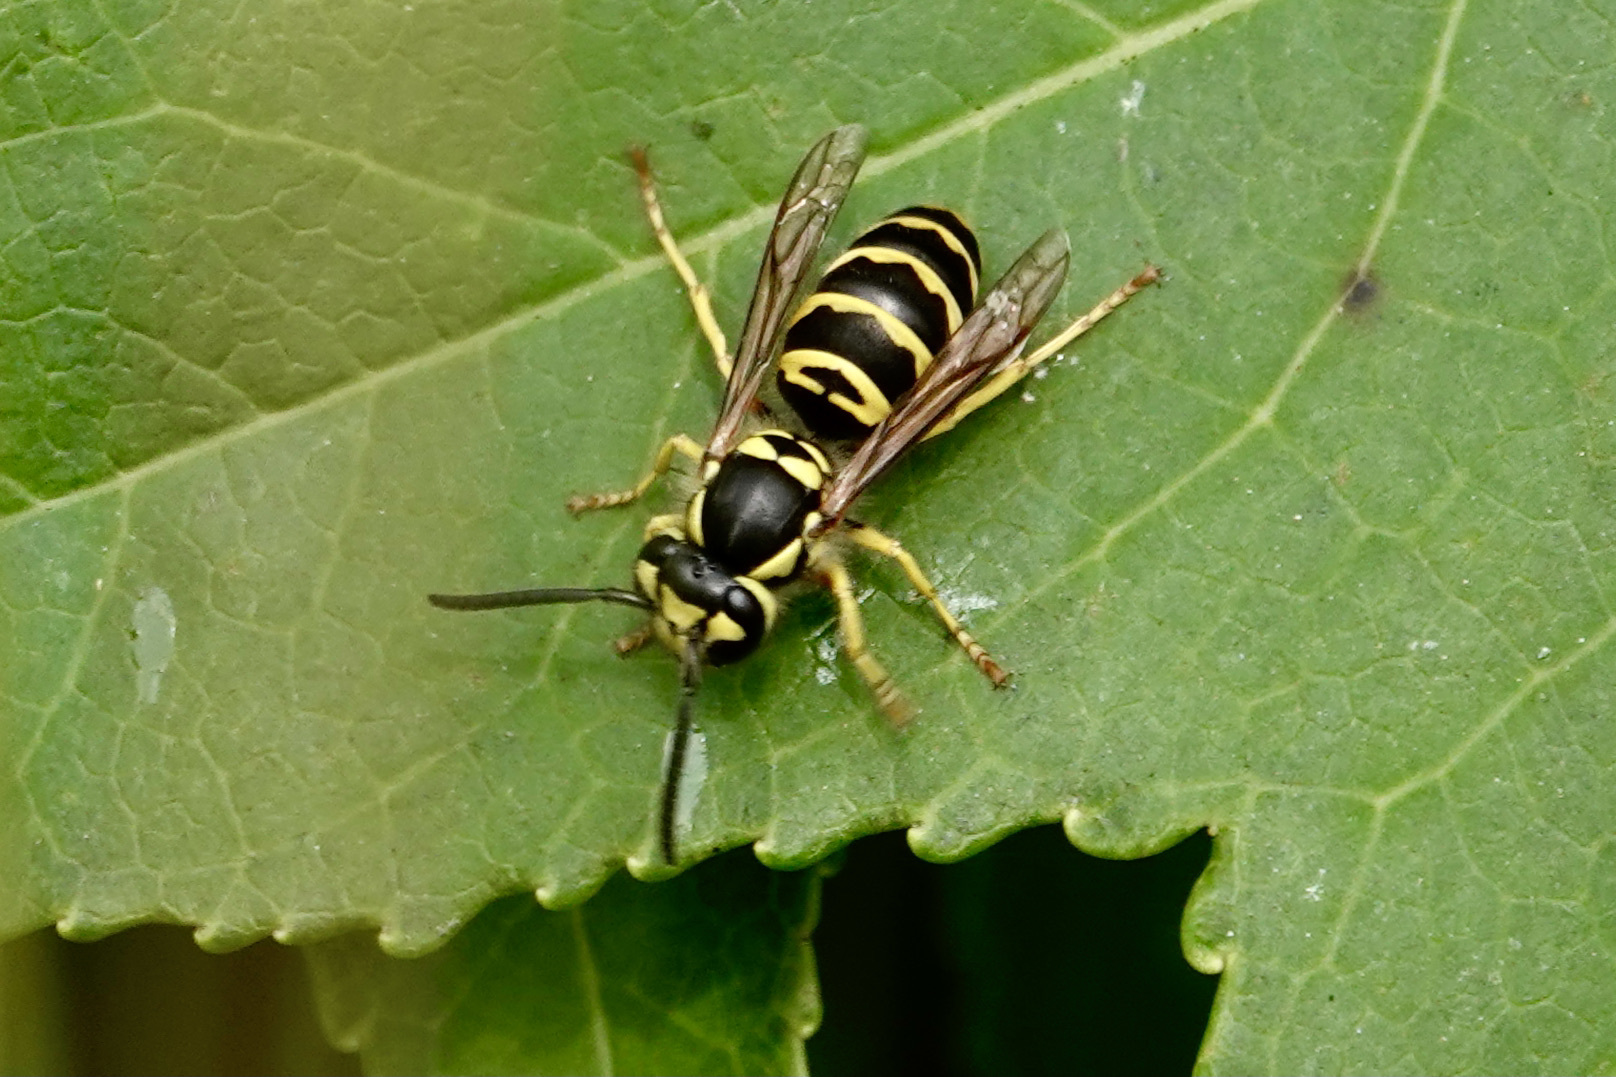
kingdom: Animalia
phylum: Arthropoda
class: Insecta
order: Hymenoptera
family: Vespidae
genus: Vespula
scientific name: Vespula maculifrons
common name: Eastern yellowjacket
